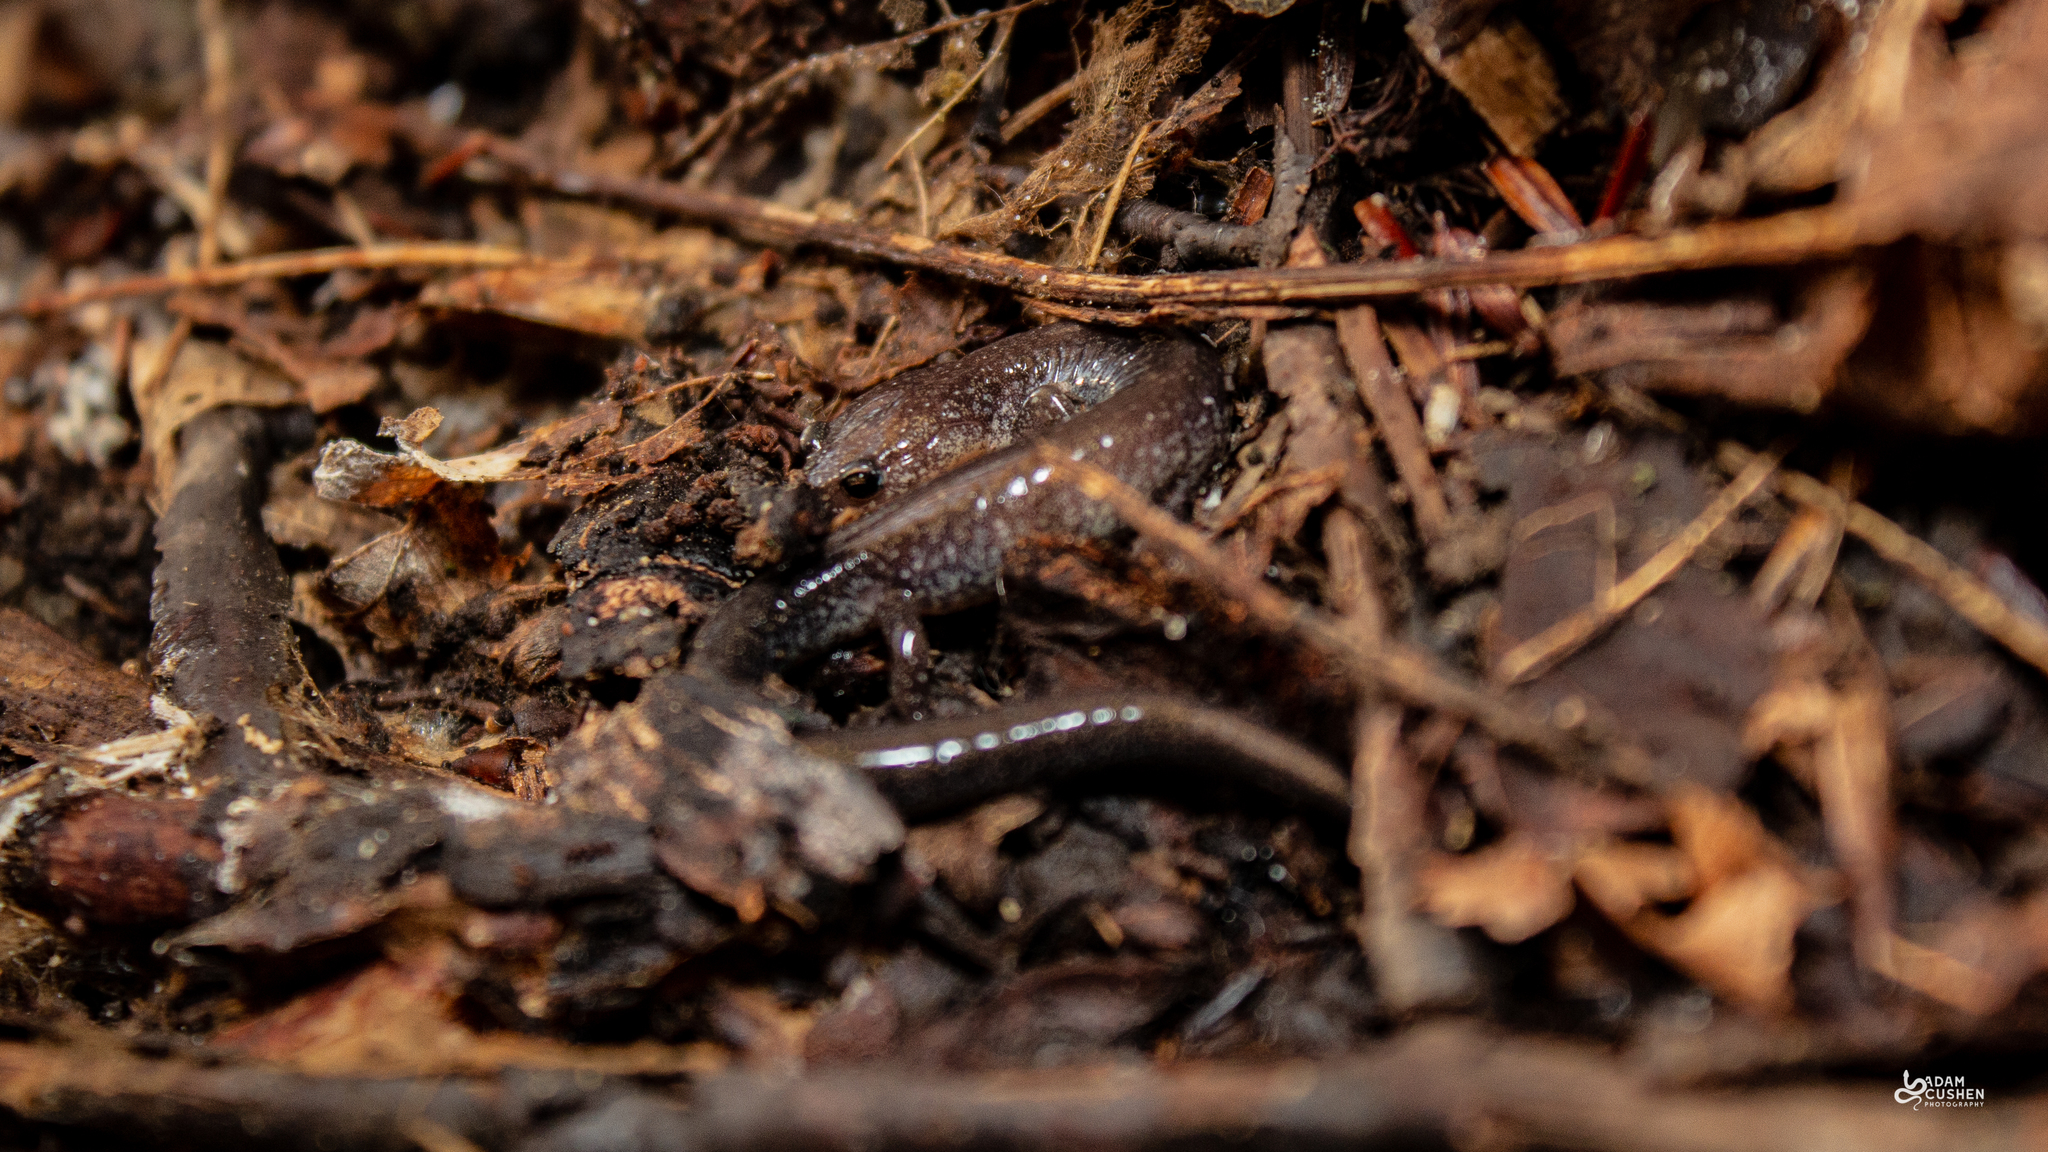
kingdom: Animalia
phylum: Chordata
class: Amphibia
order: Caudata
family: Plethodontidae
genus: Plethodon
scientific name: Plethodon cinereus
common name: Redback salamander
